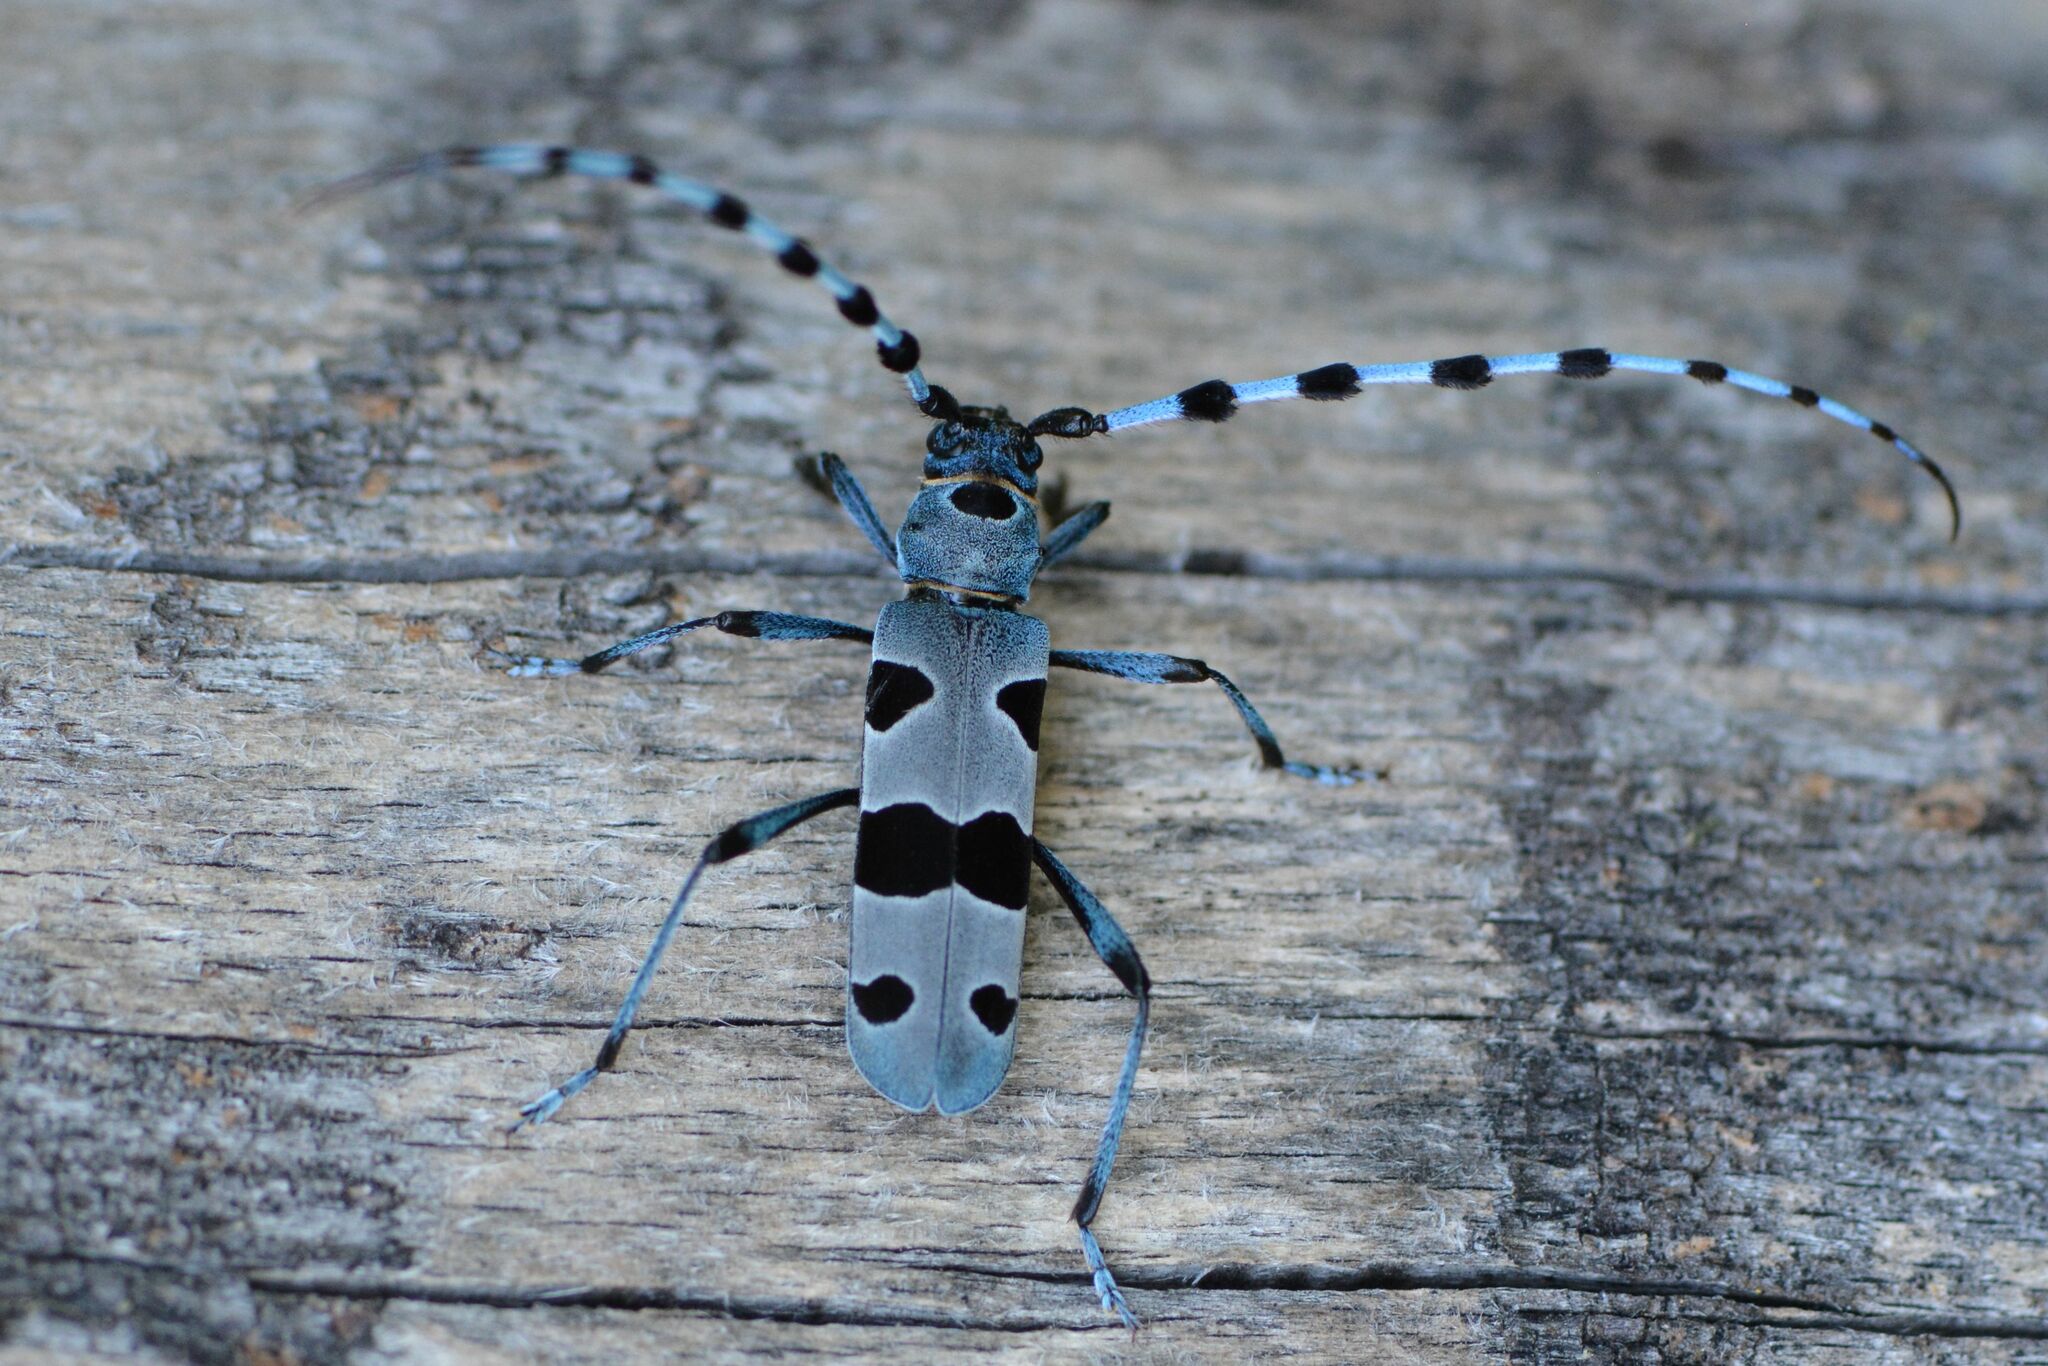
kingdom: Animalia
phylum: Arthropoda
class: Insecta
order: Coleoptera
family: Cerambycidae
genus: Rosalia
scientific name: Rosalia alpina
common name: Rosalia longicorn
